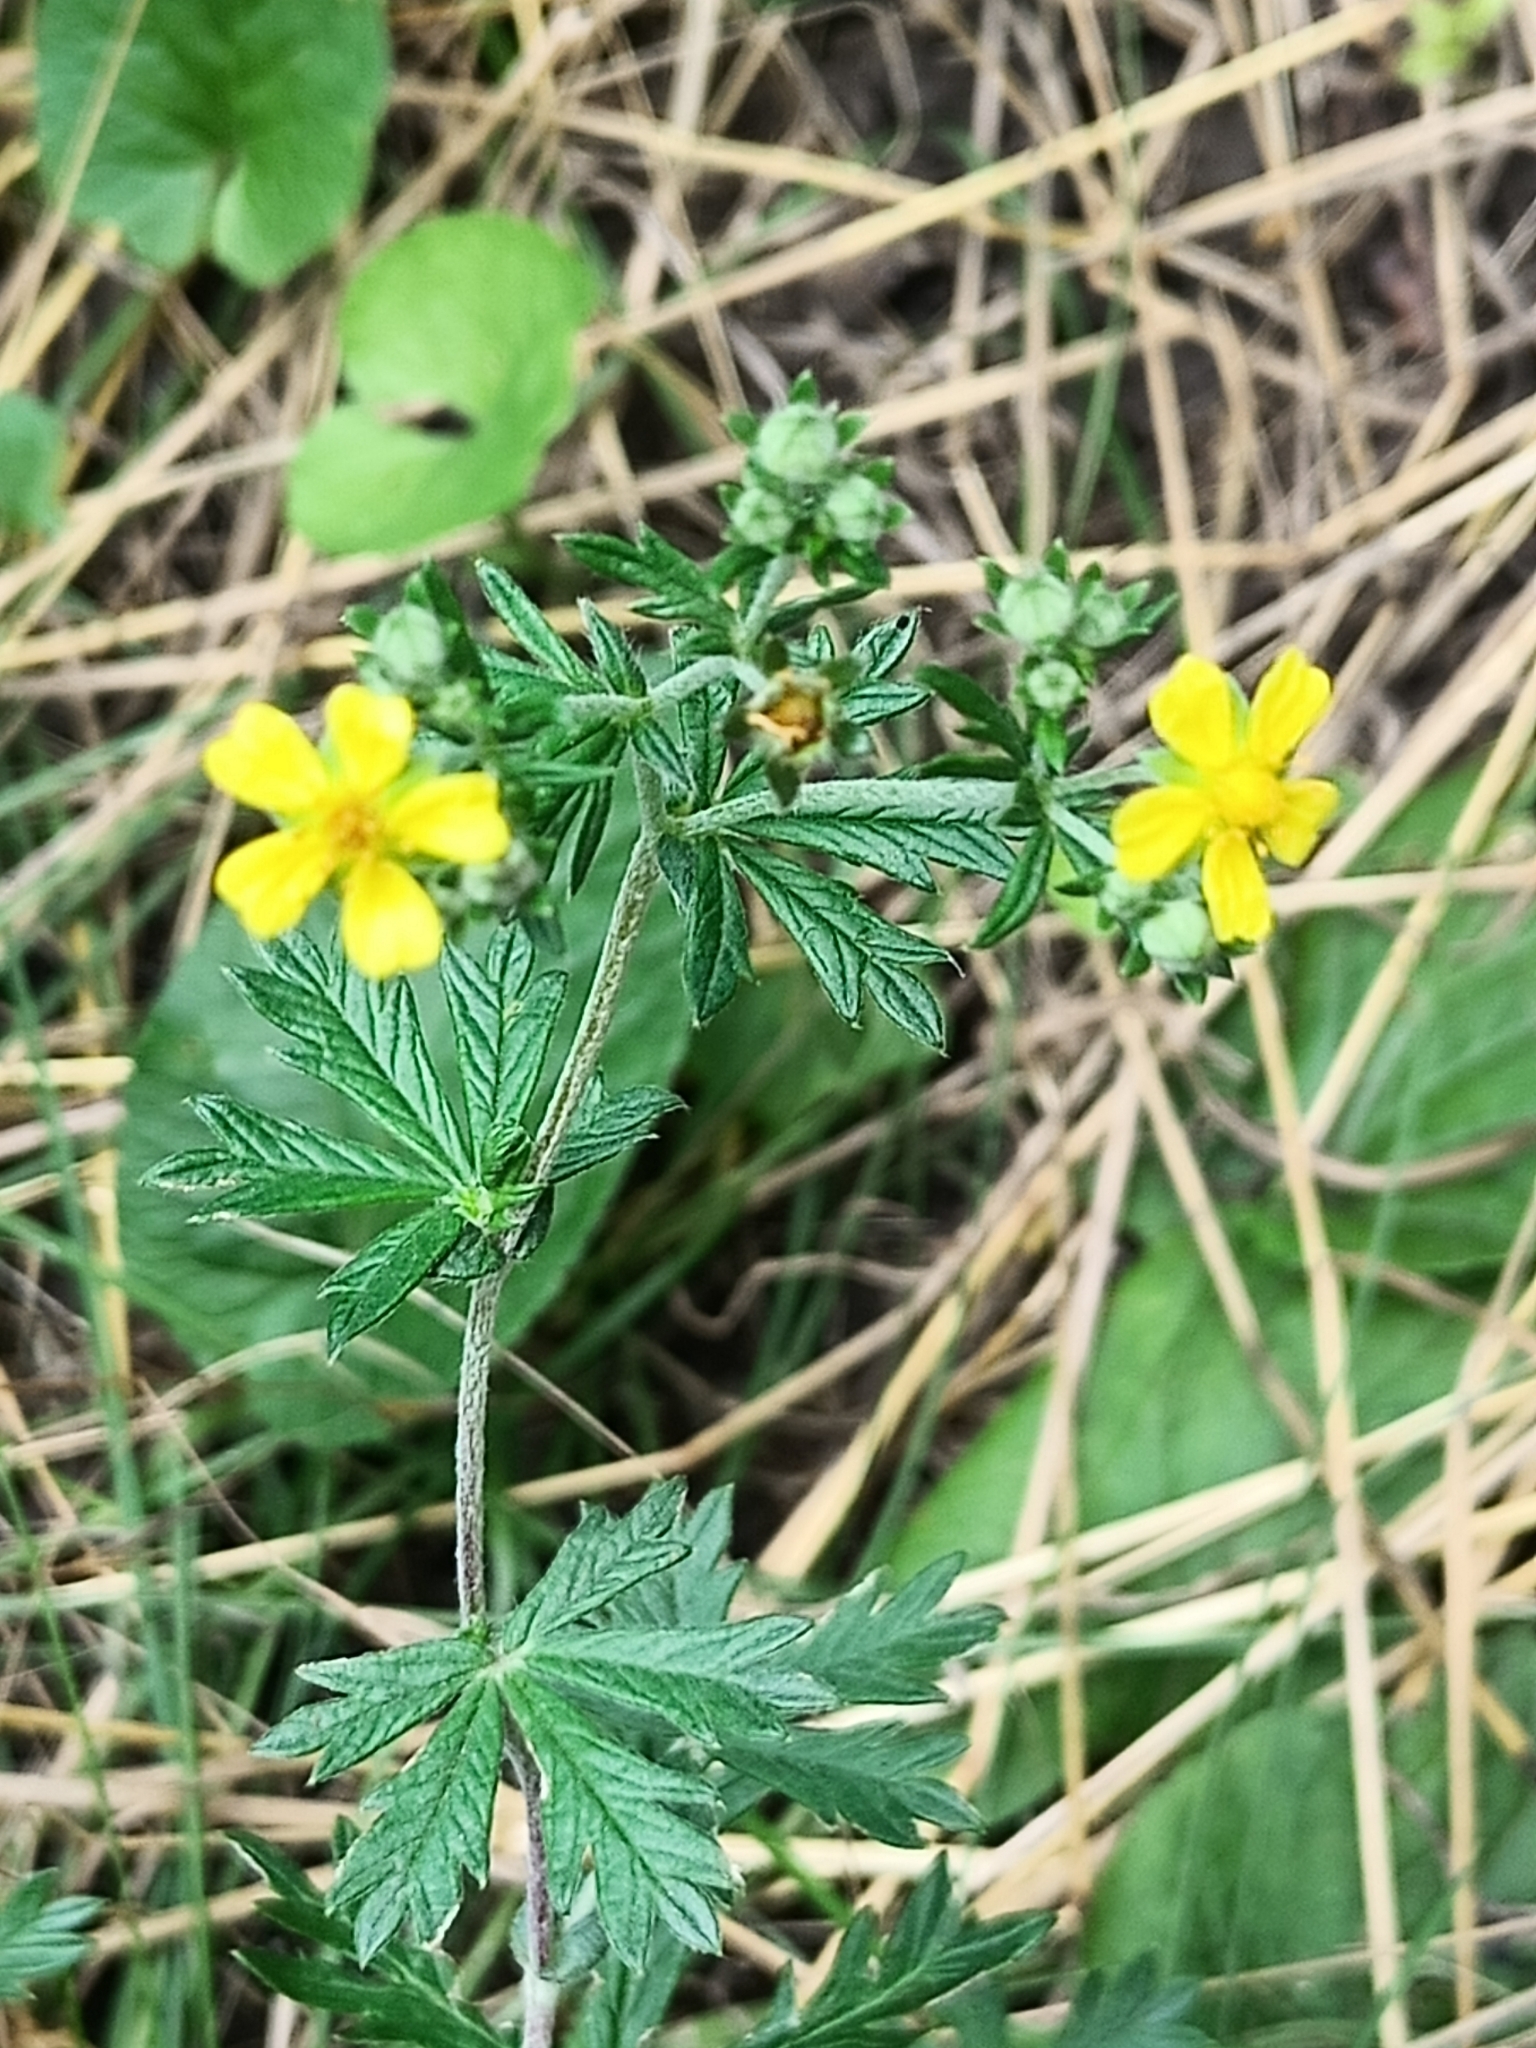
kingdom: Plantae
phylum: Tracheophyta
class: Magnoliopsida
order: Rosales
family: Rosaceae
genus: Potentilla
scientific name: Potentilla argentea
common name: Hoary cinquefoil
